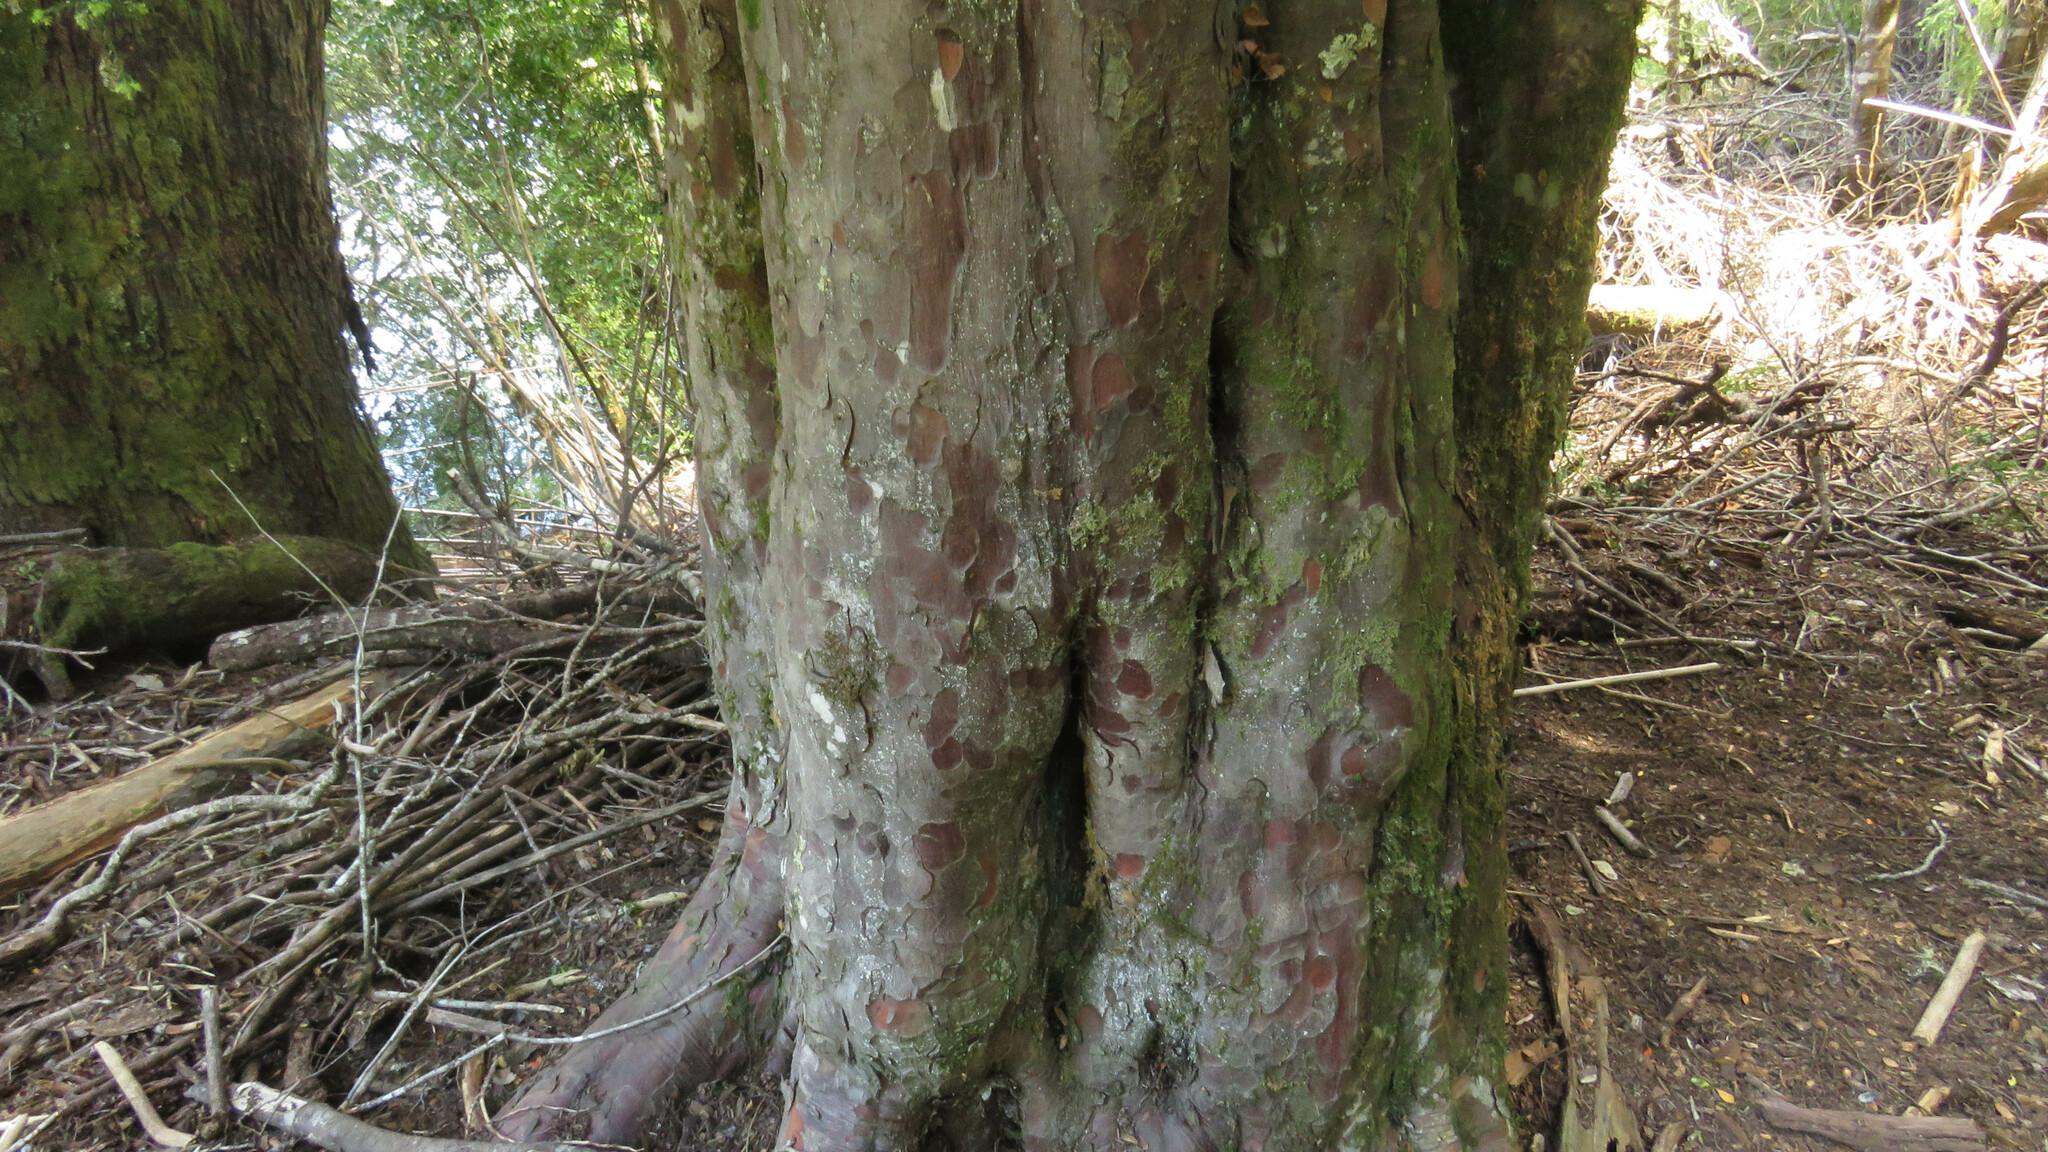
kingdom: Plantae
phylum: Tracheophyta
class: Pinopsida
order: Pinales
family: Podocarpaceae
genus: Saxegothaea
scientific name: Saxegothaea conspicua
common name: Prince albert's yew
